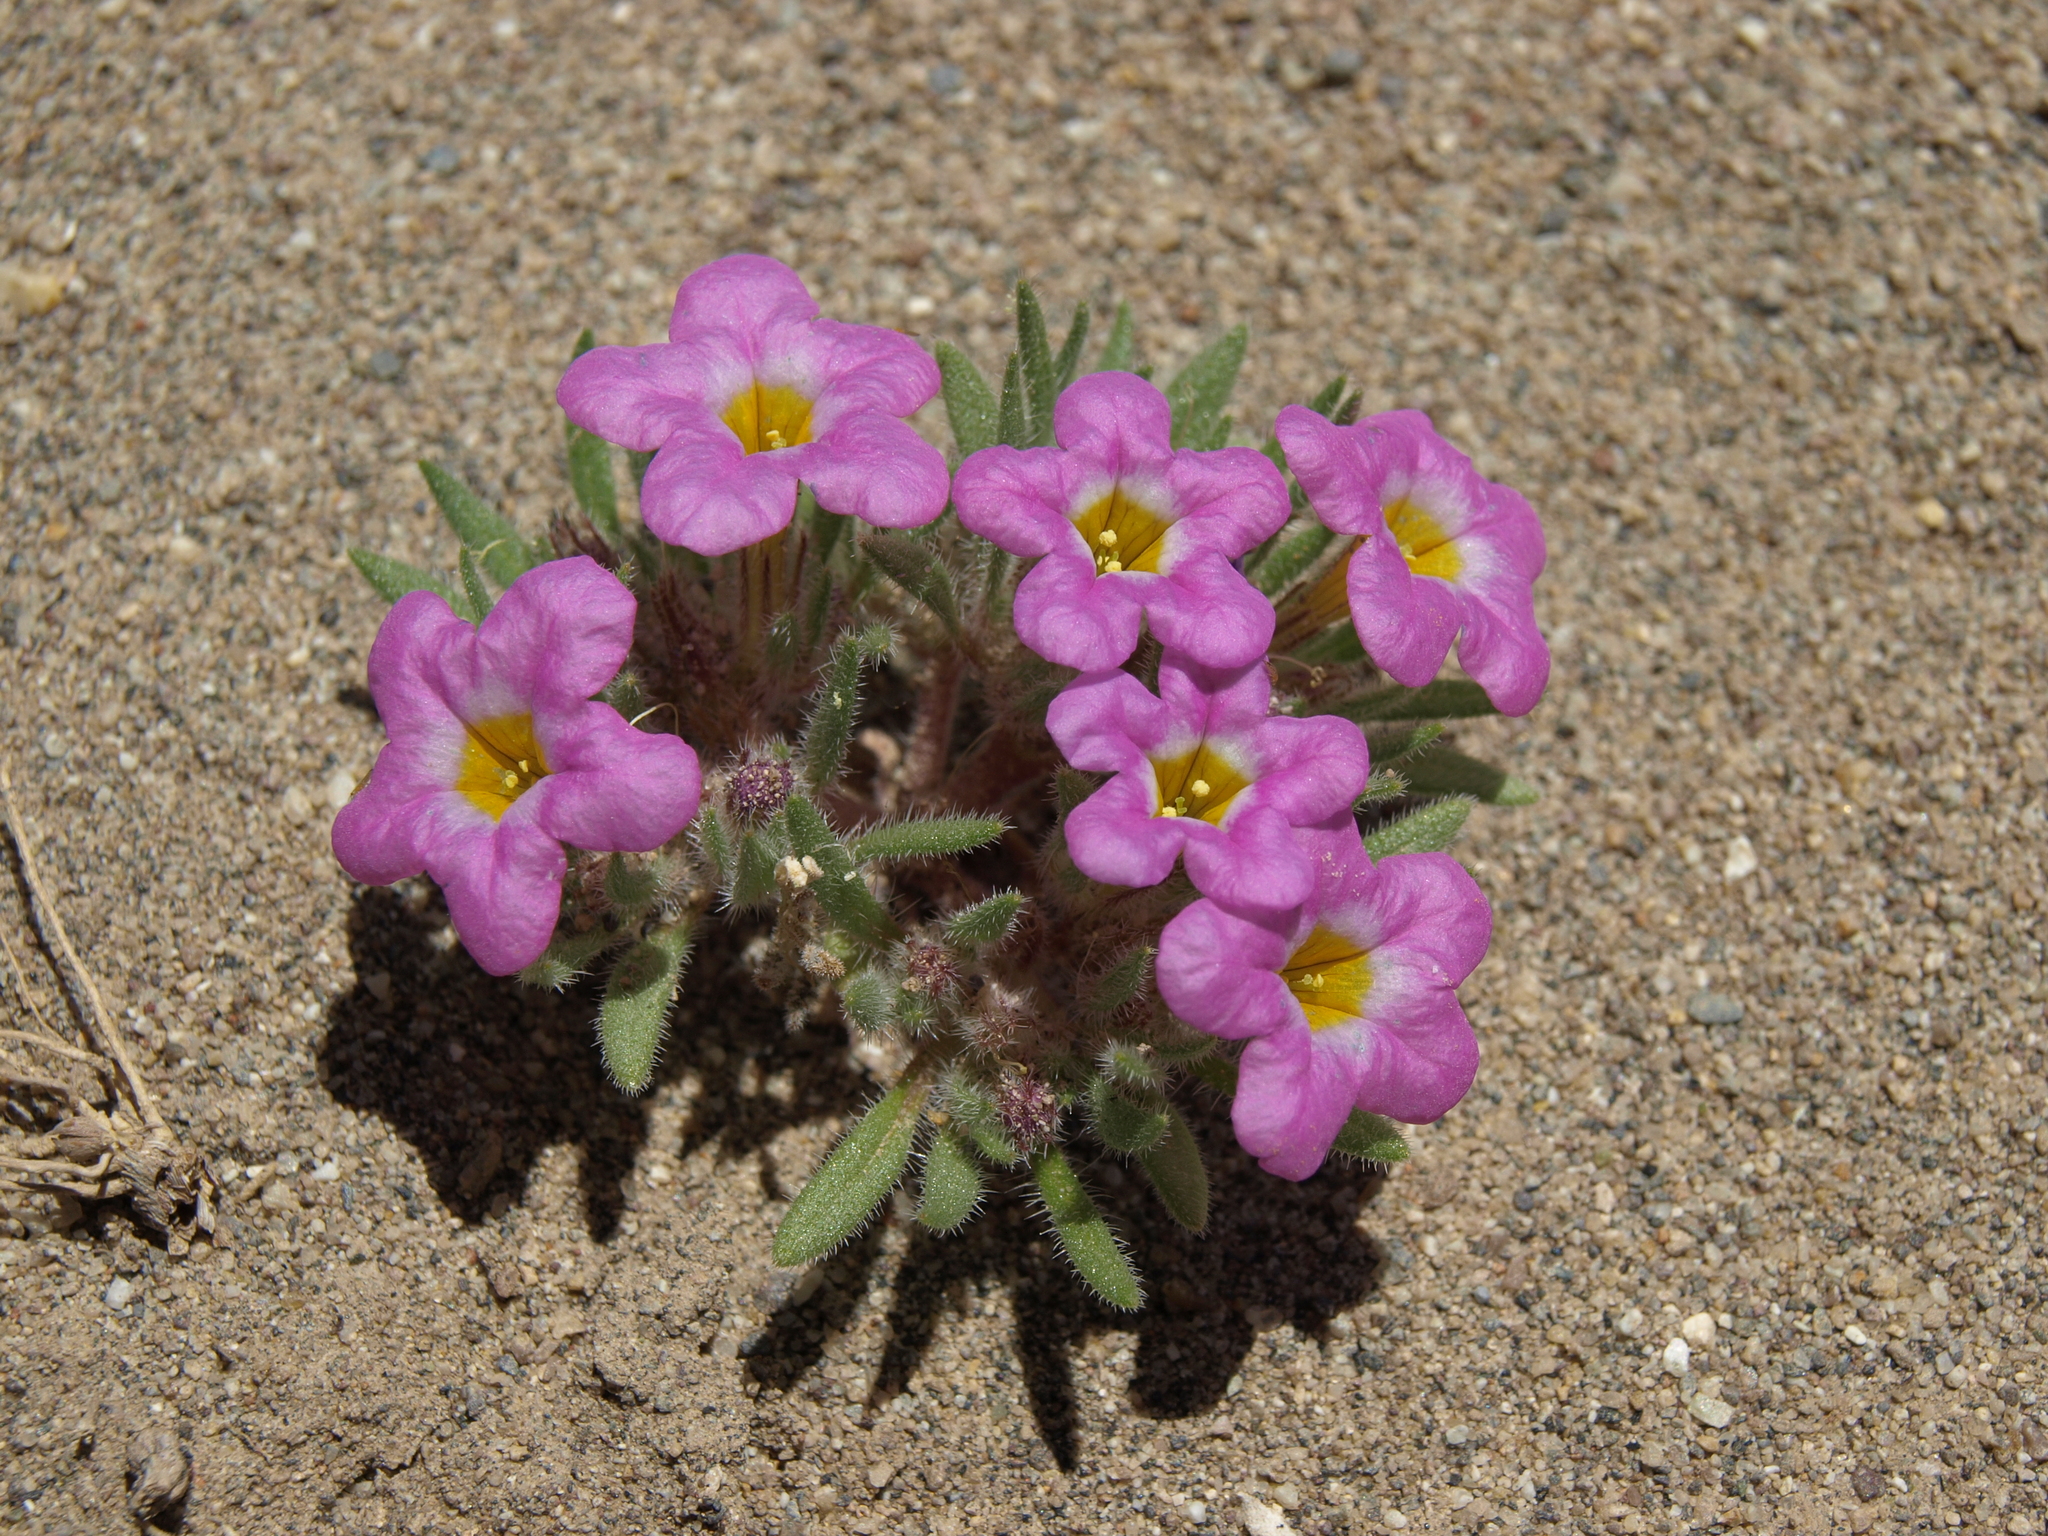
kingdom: Plantae
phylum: Tracheophyta
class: Magnoliopsida
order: Boraginales
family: Namaceae
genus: Nama
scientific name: Nama aretioides
